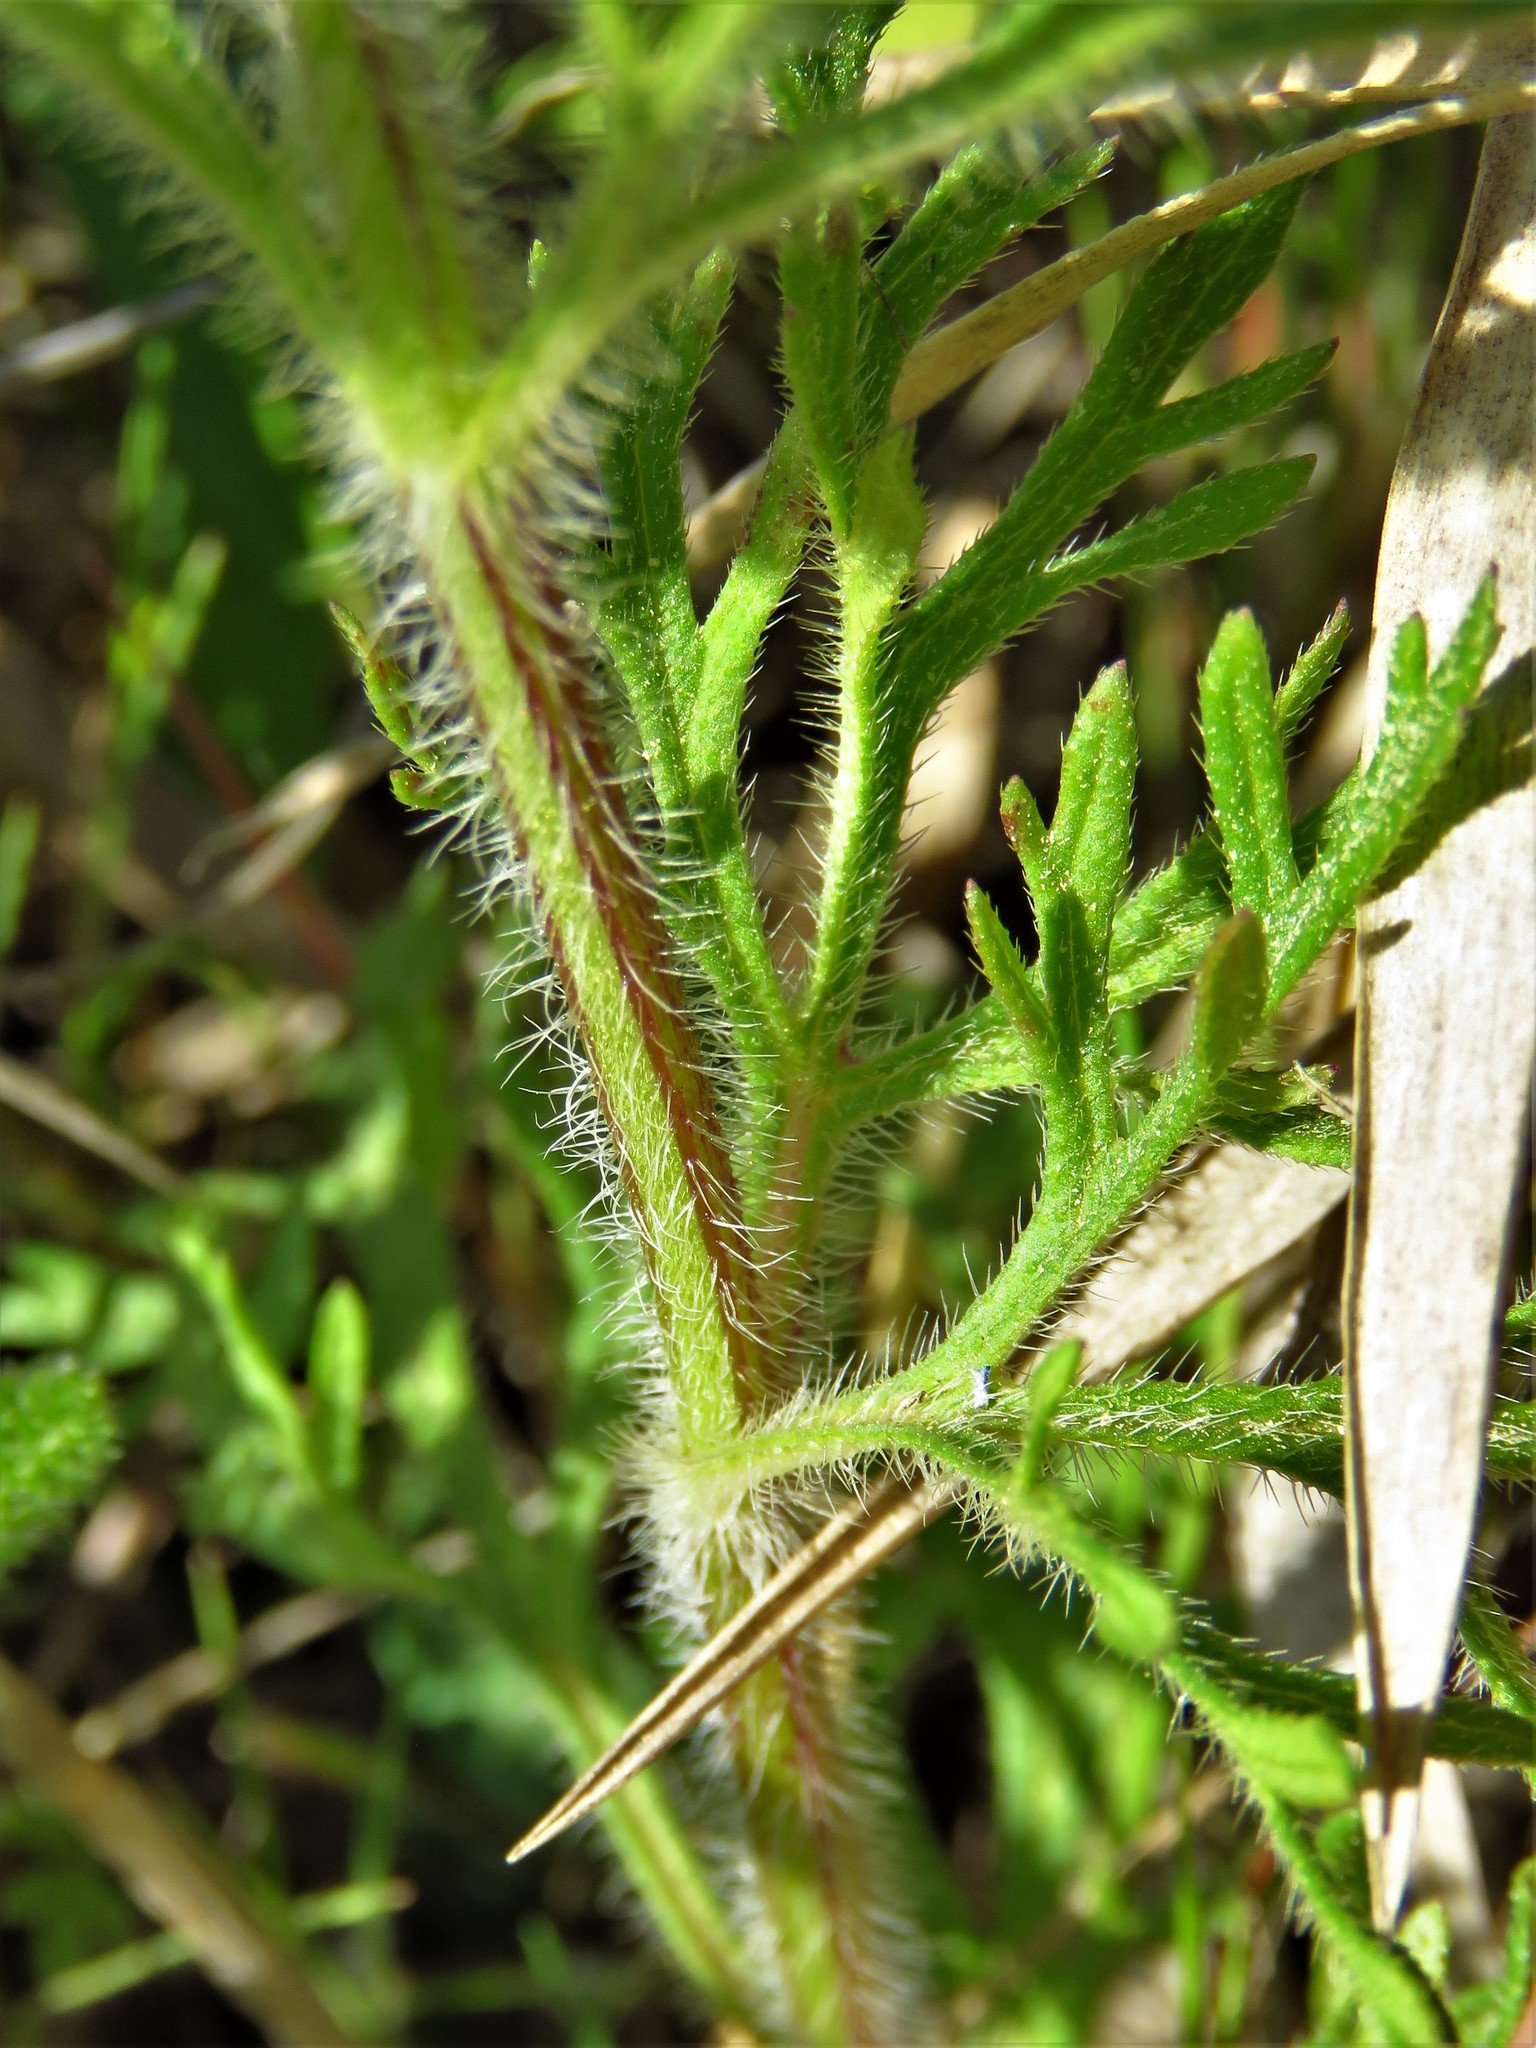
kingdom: Plantae
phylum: Tracheophyta
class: Magnoliopsida
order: Lamiales
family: Verbenaceae
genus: Verbena
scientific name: Verbena bipinnatifida
